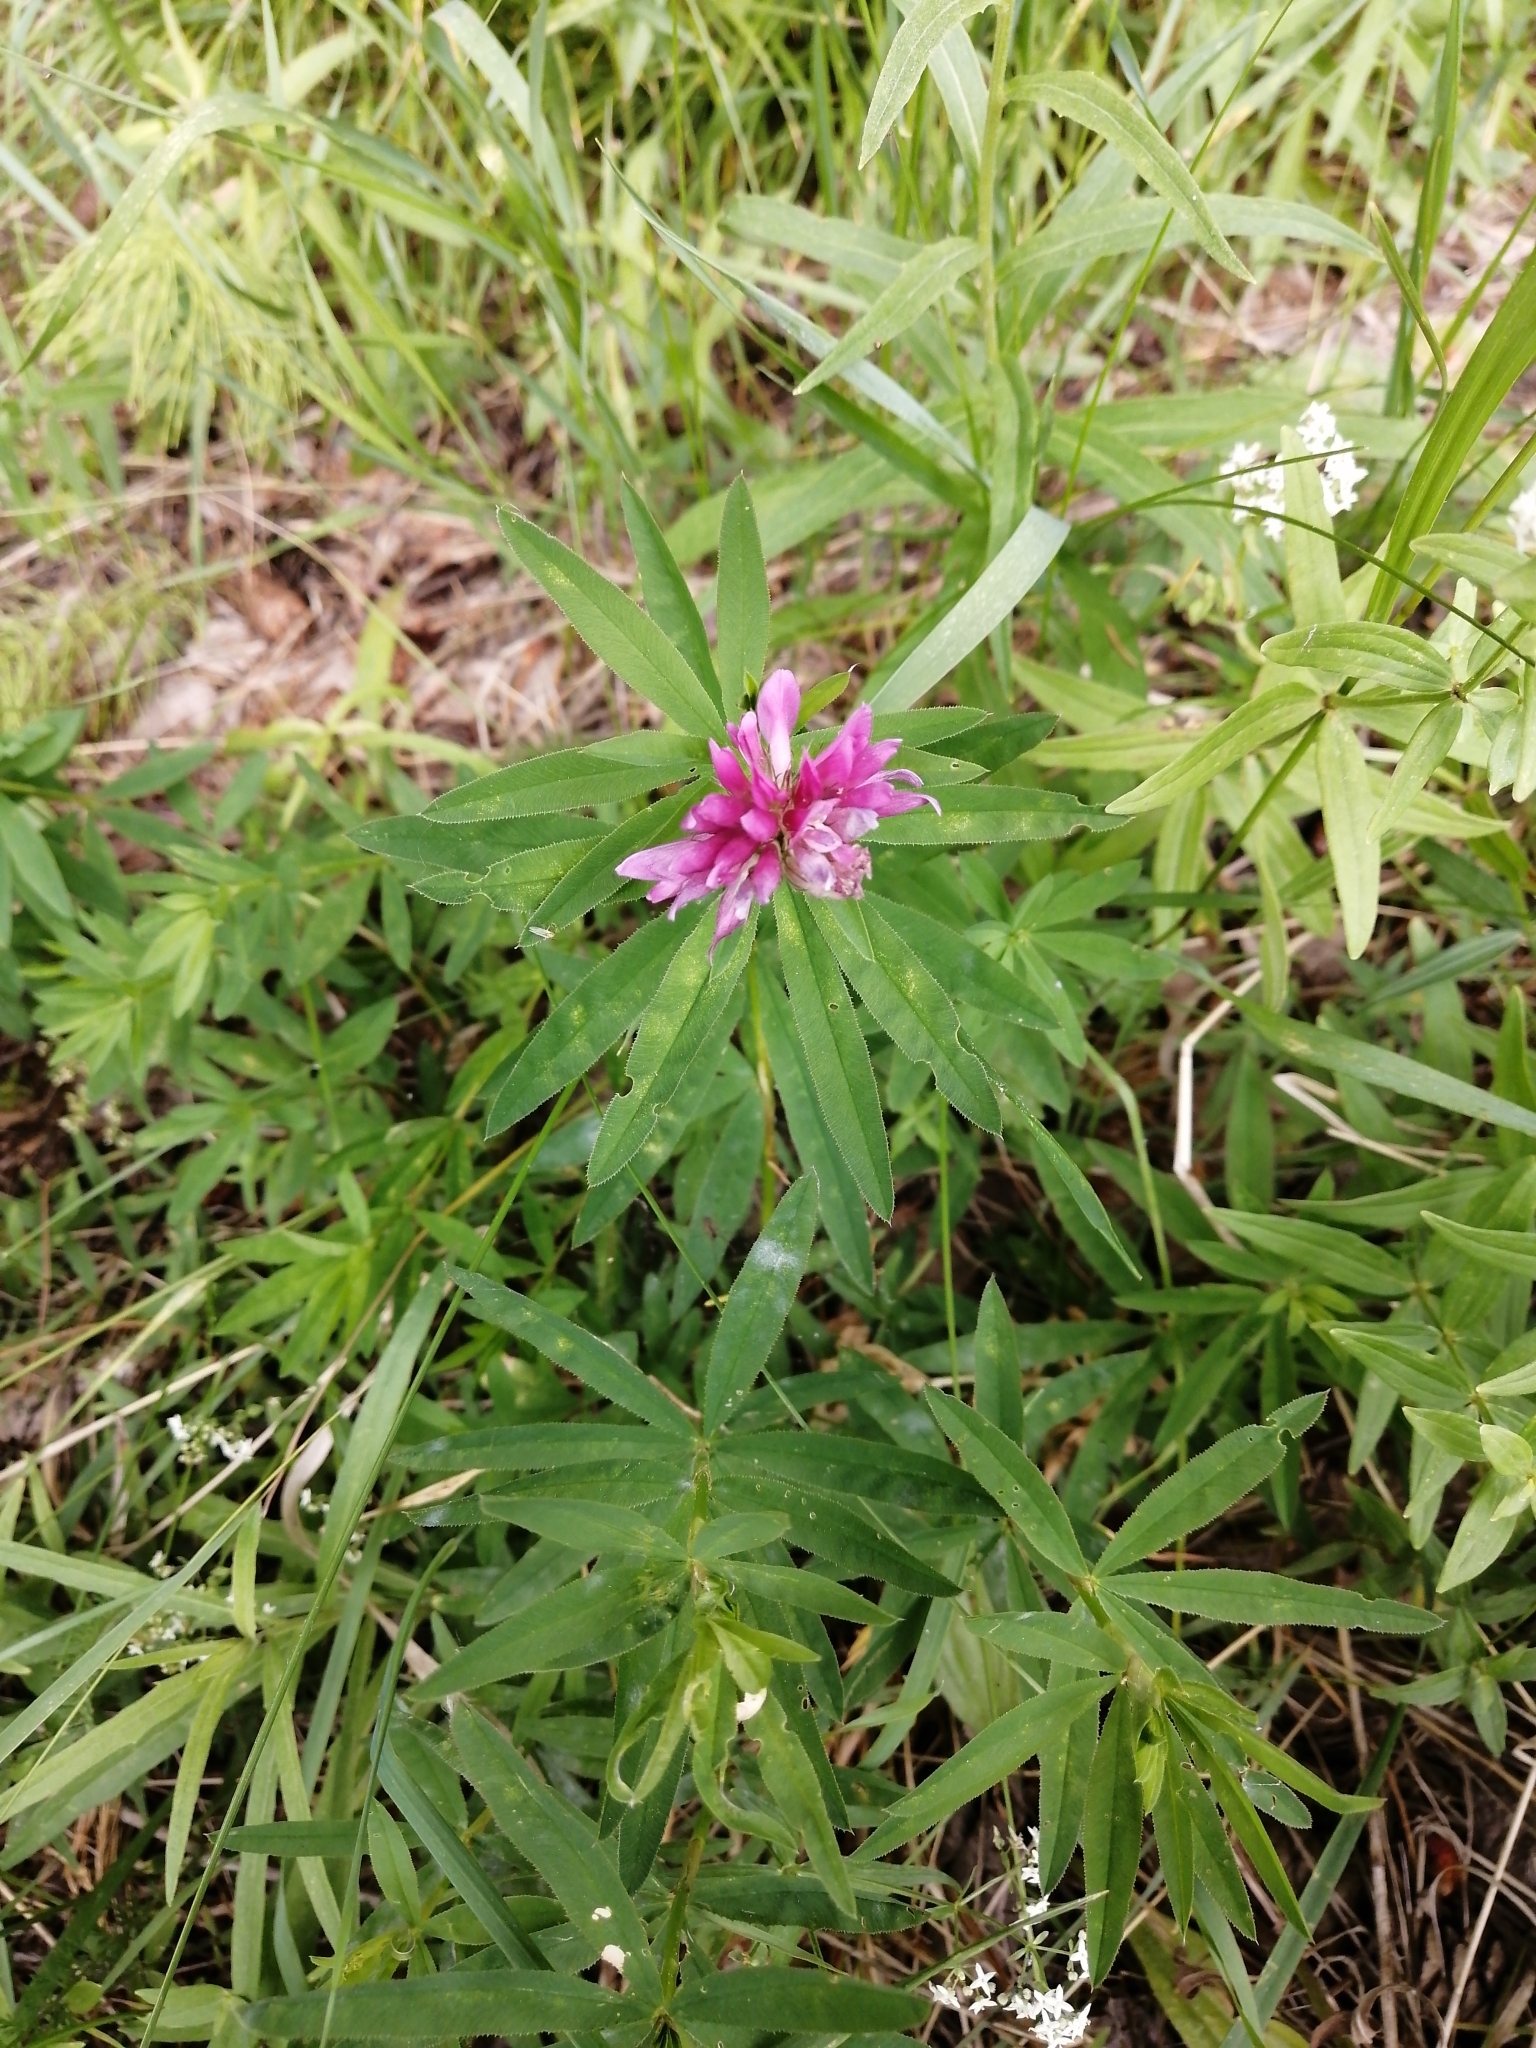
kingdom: Plantae
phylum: Tracheophyta
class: Magnoliopsida
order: Fabales
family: Fabaceae
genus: Trifolium
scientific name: Trifolium lupinaster
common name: Lupine clover
